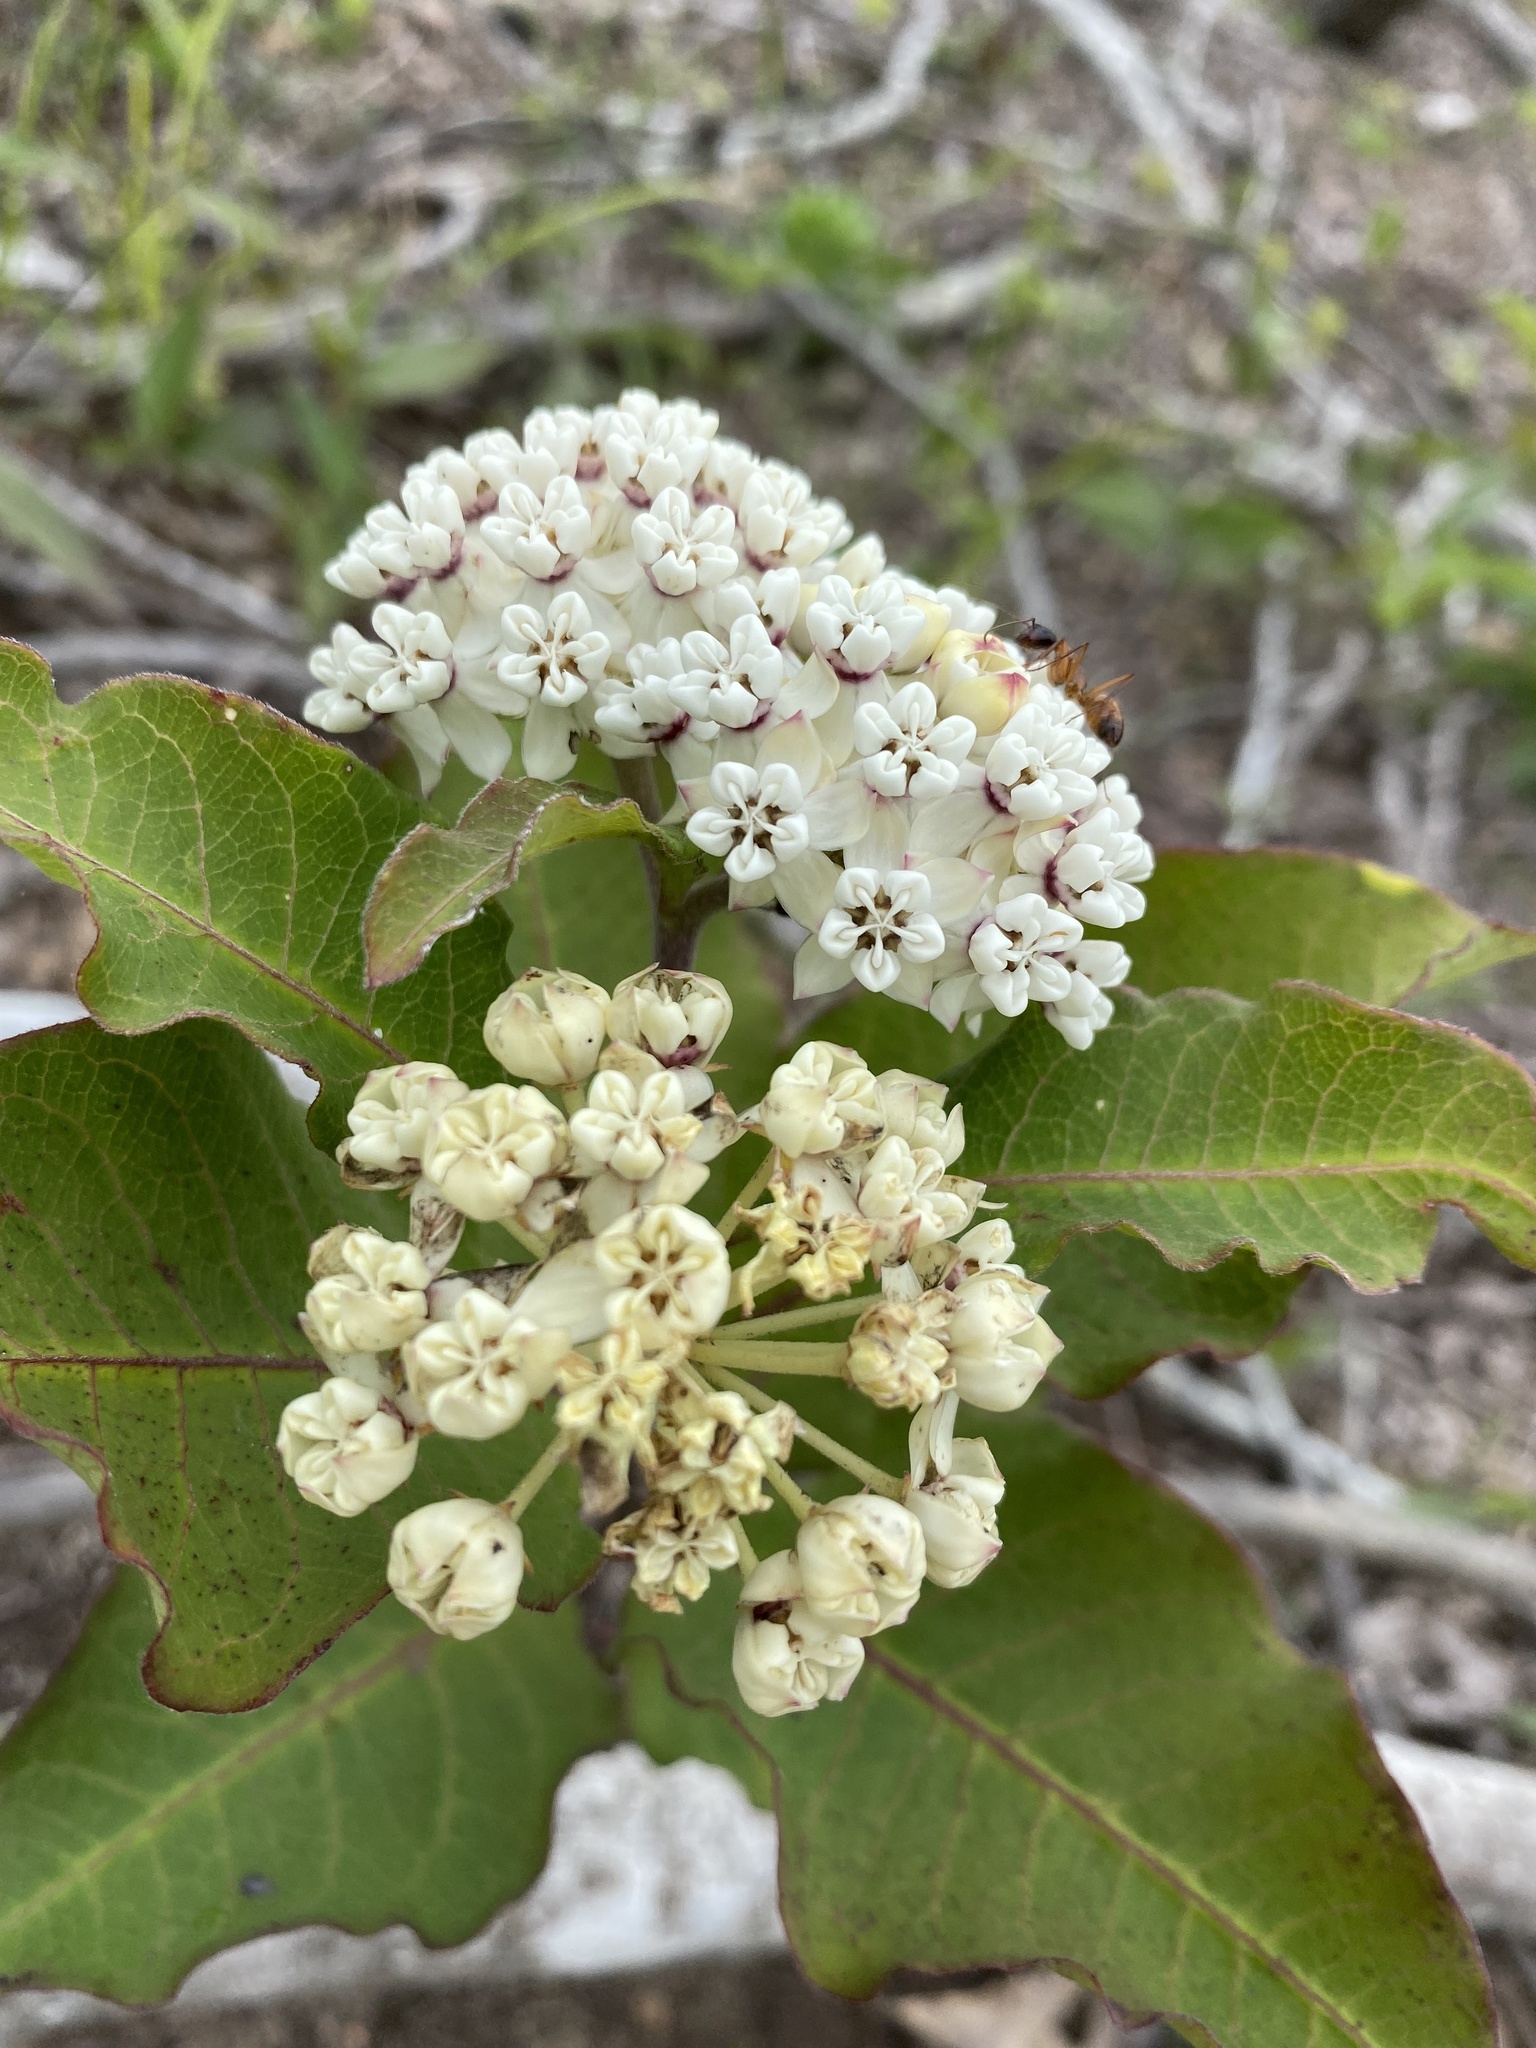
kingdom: Plantae
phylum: Tracheophyta
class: Magnoliopsida
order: Gentianales
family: Apocynaceae
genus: Asclepias
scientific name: Asclepias variegata
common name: Variegated milkweed
